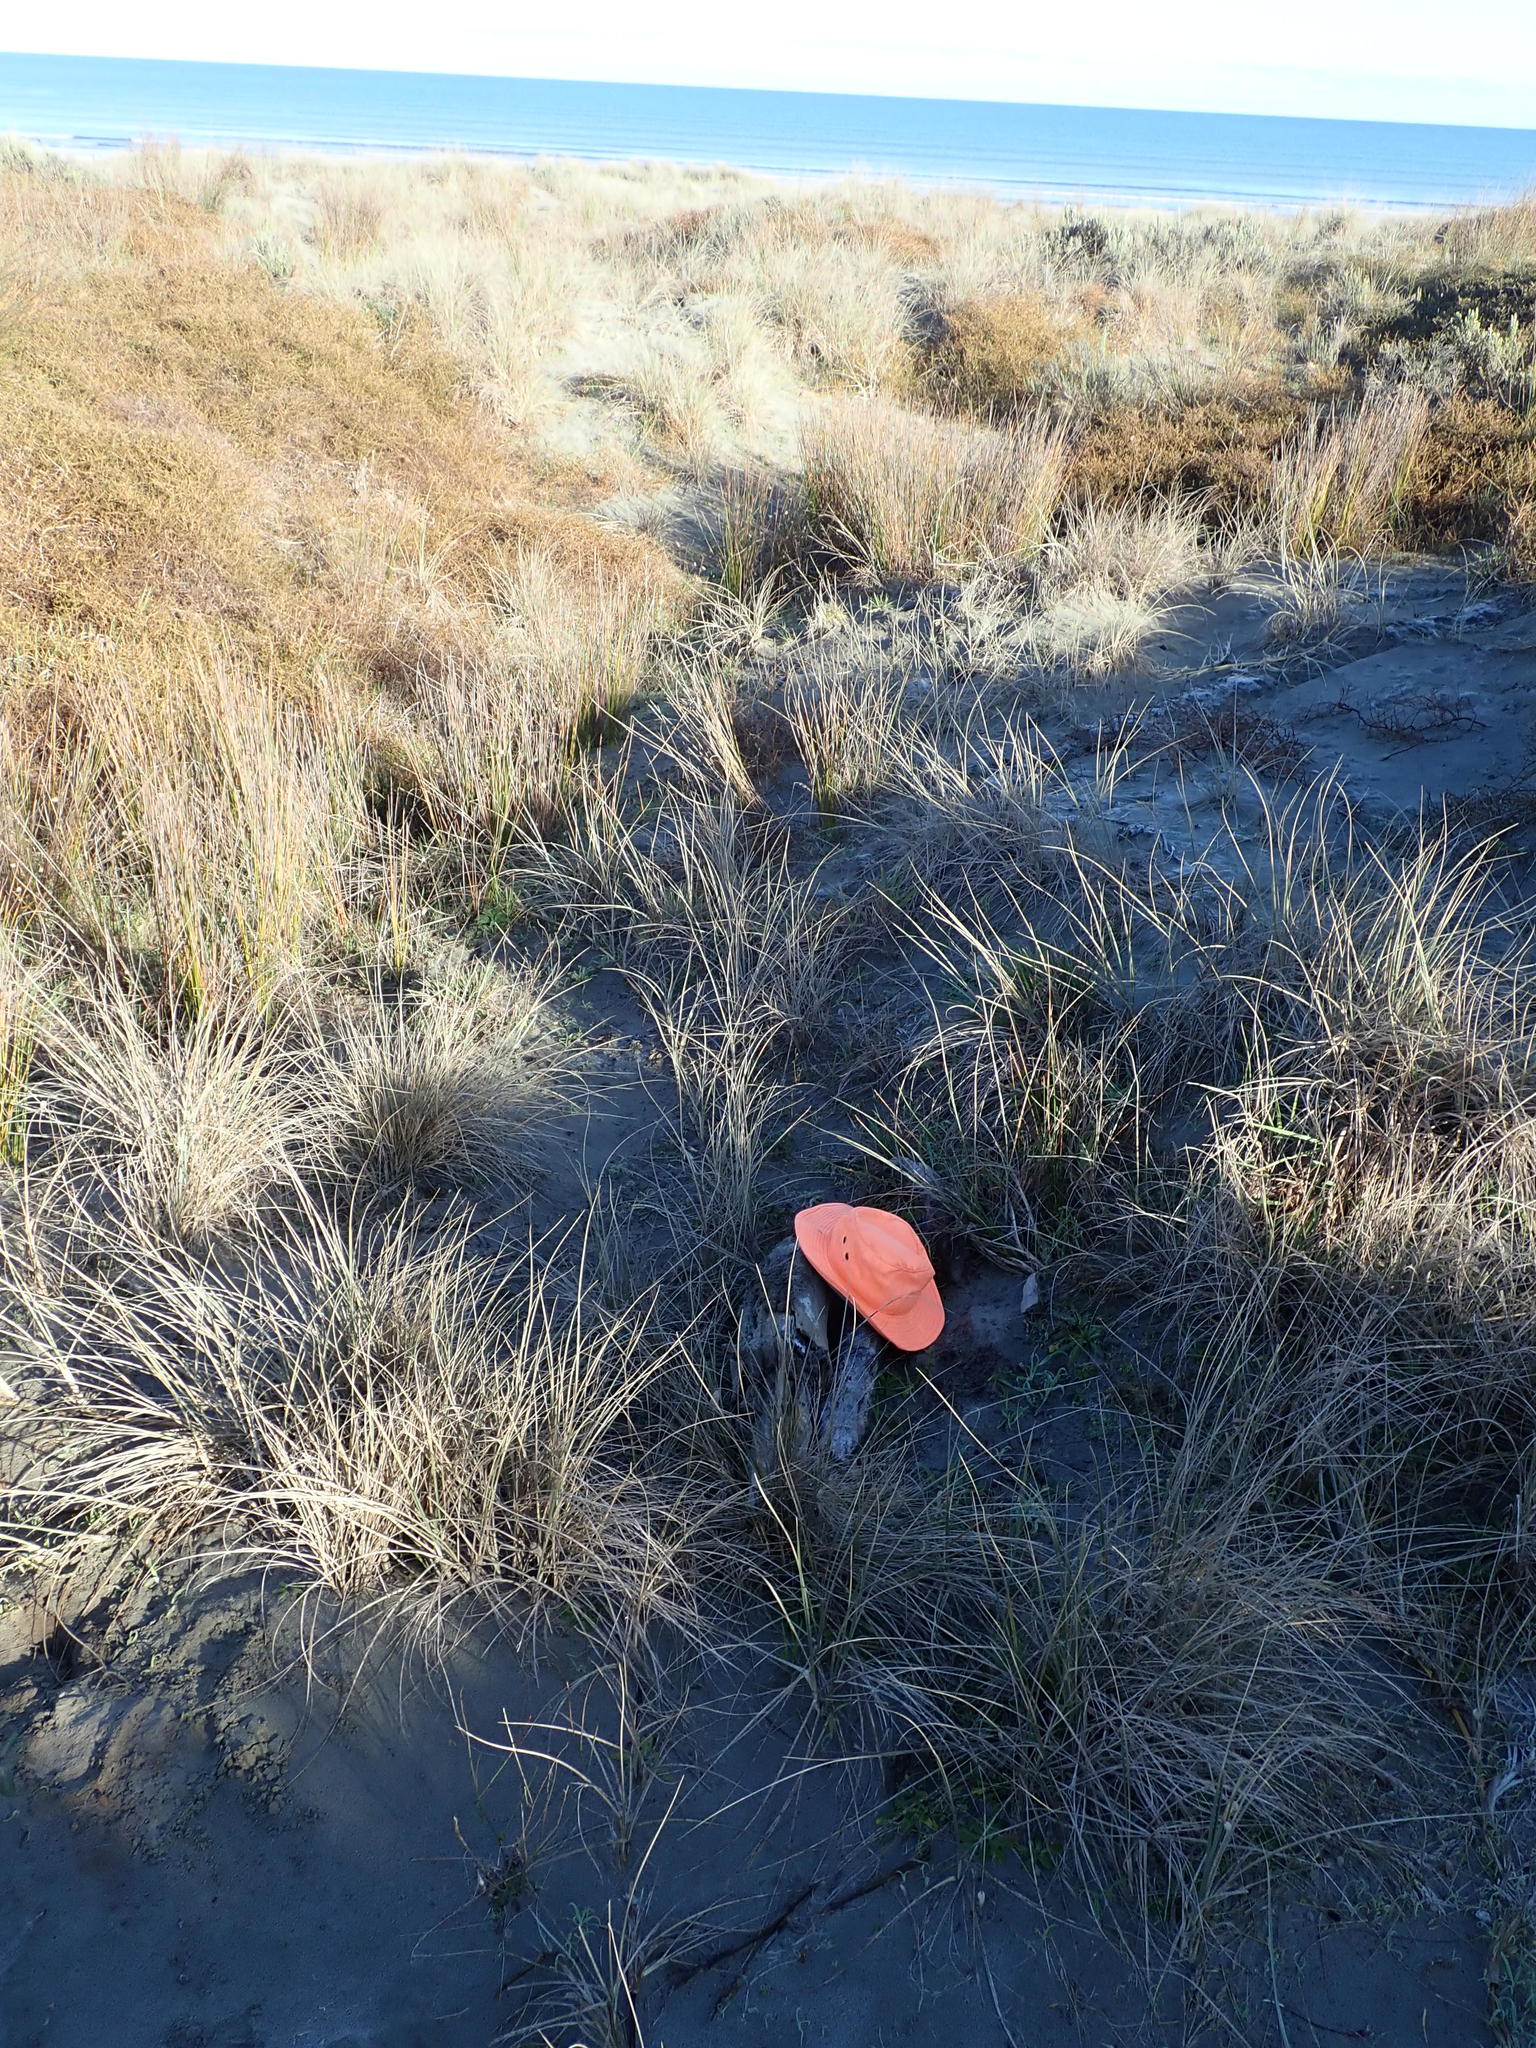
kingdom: Animalia
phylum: Mollusca
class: Gastropoda
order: Stylommatophora
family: Helicidae
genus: Cornu
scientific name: Cornu aspersum
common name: Brown garden snail
